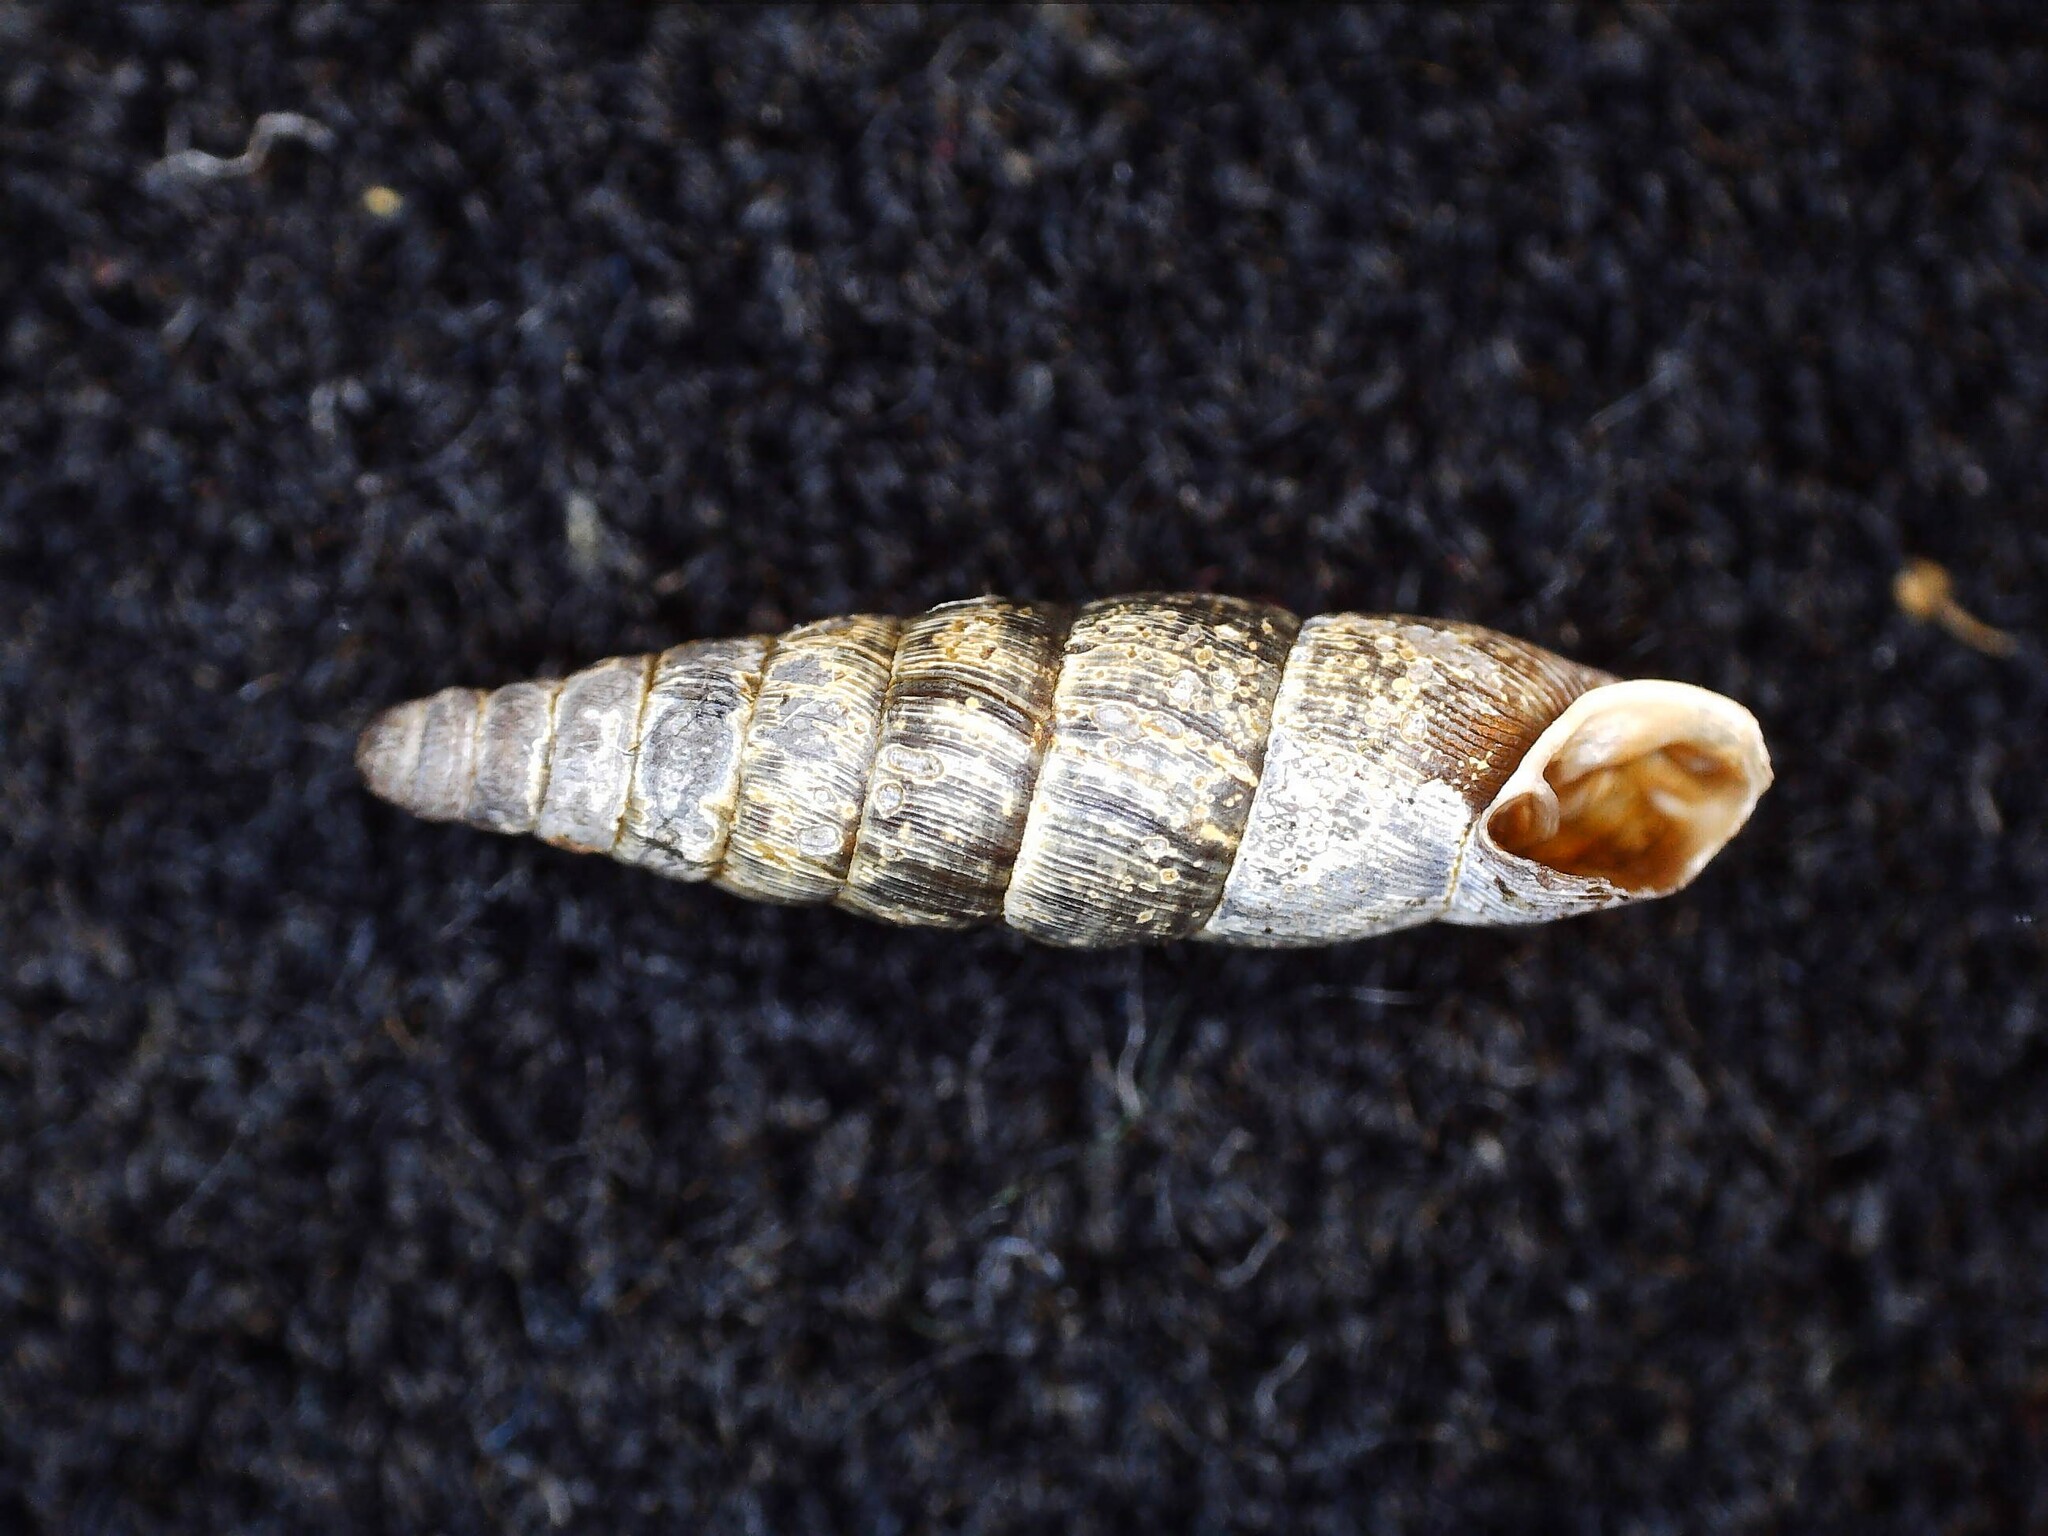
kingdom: Animalia
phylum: Mollusca
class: Gastropoda
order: Stylommatophora
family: Clausiliidae
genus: Clausilia
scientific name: Clausilia bidentata
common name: Two-toothed door snail
